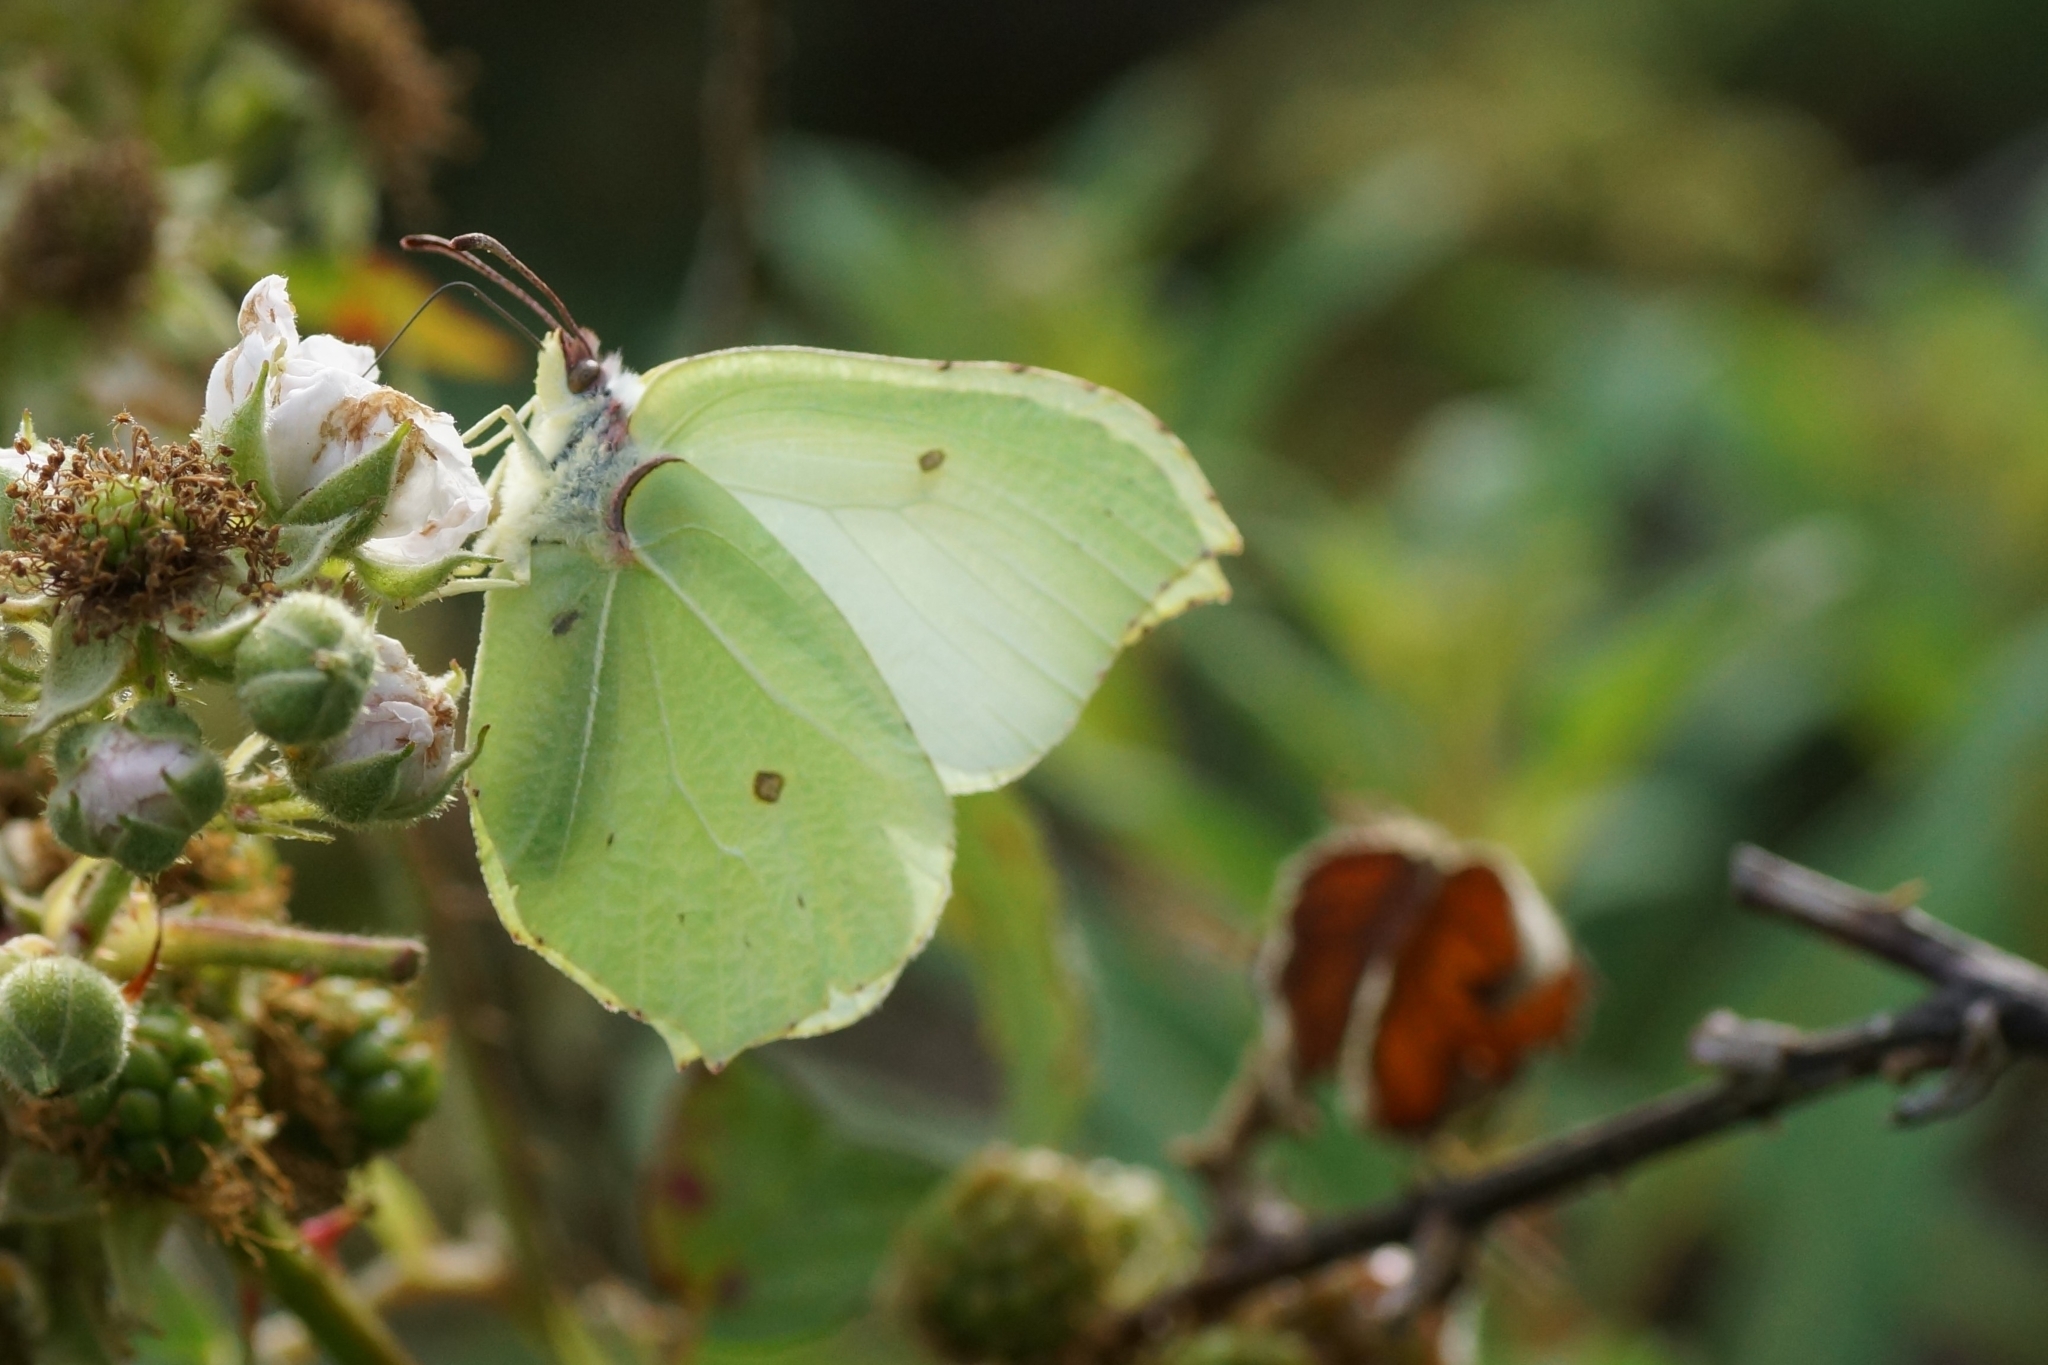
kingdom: Animalia
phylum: Arthropoda
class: Insecta
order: Lepidoptera
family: Pieridae
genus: Gonepteryx
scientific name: Gonepteryx rhamni
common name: Brimstone
